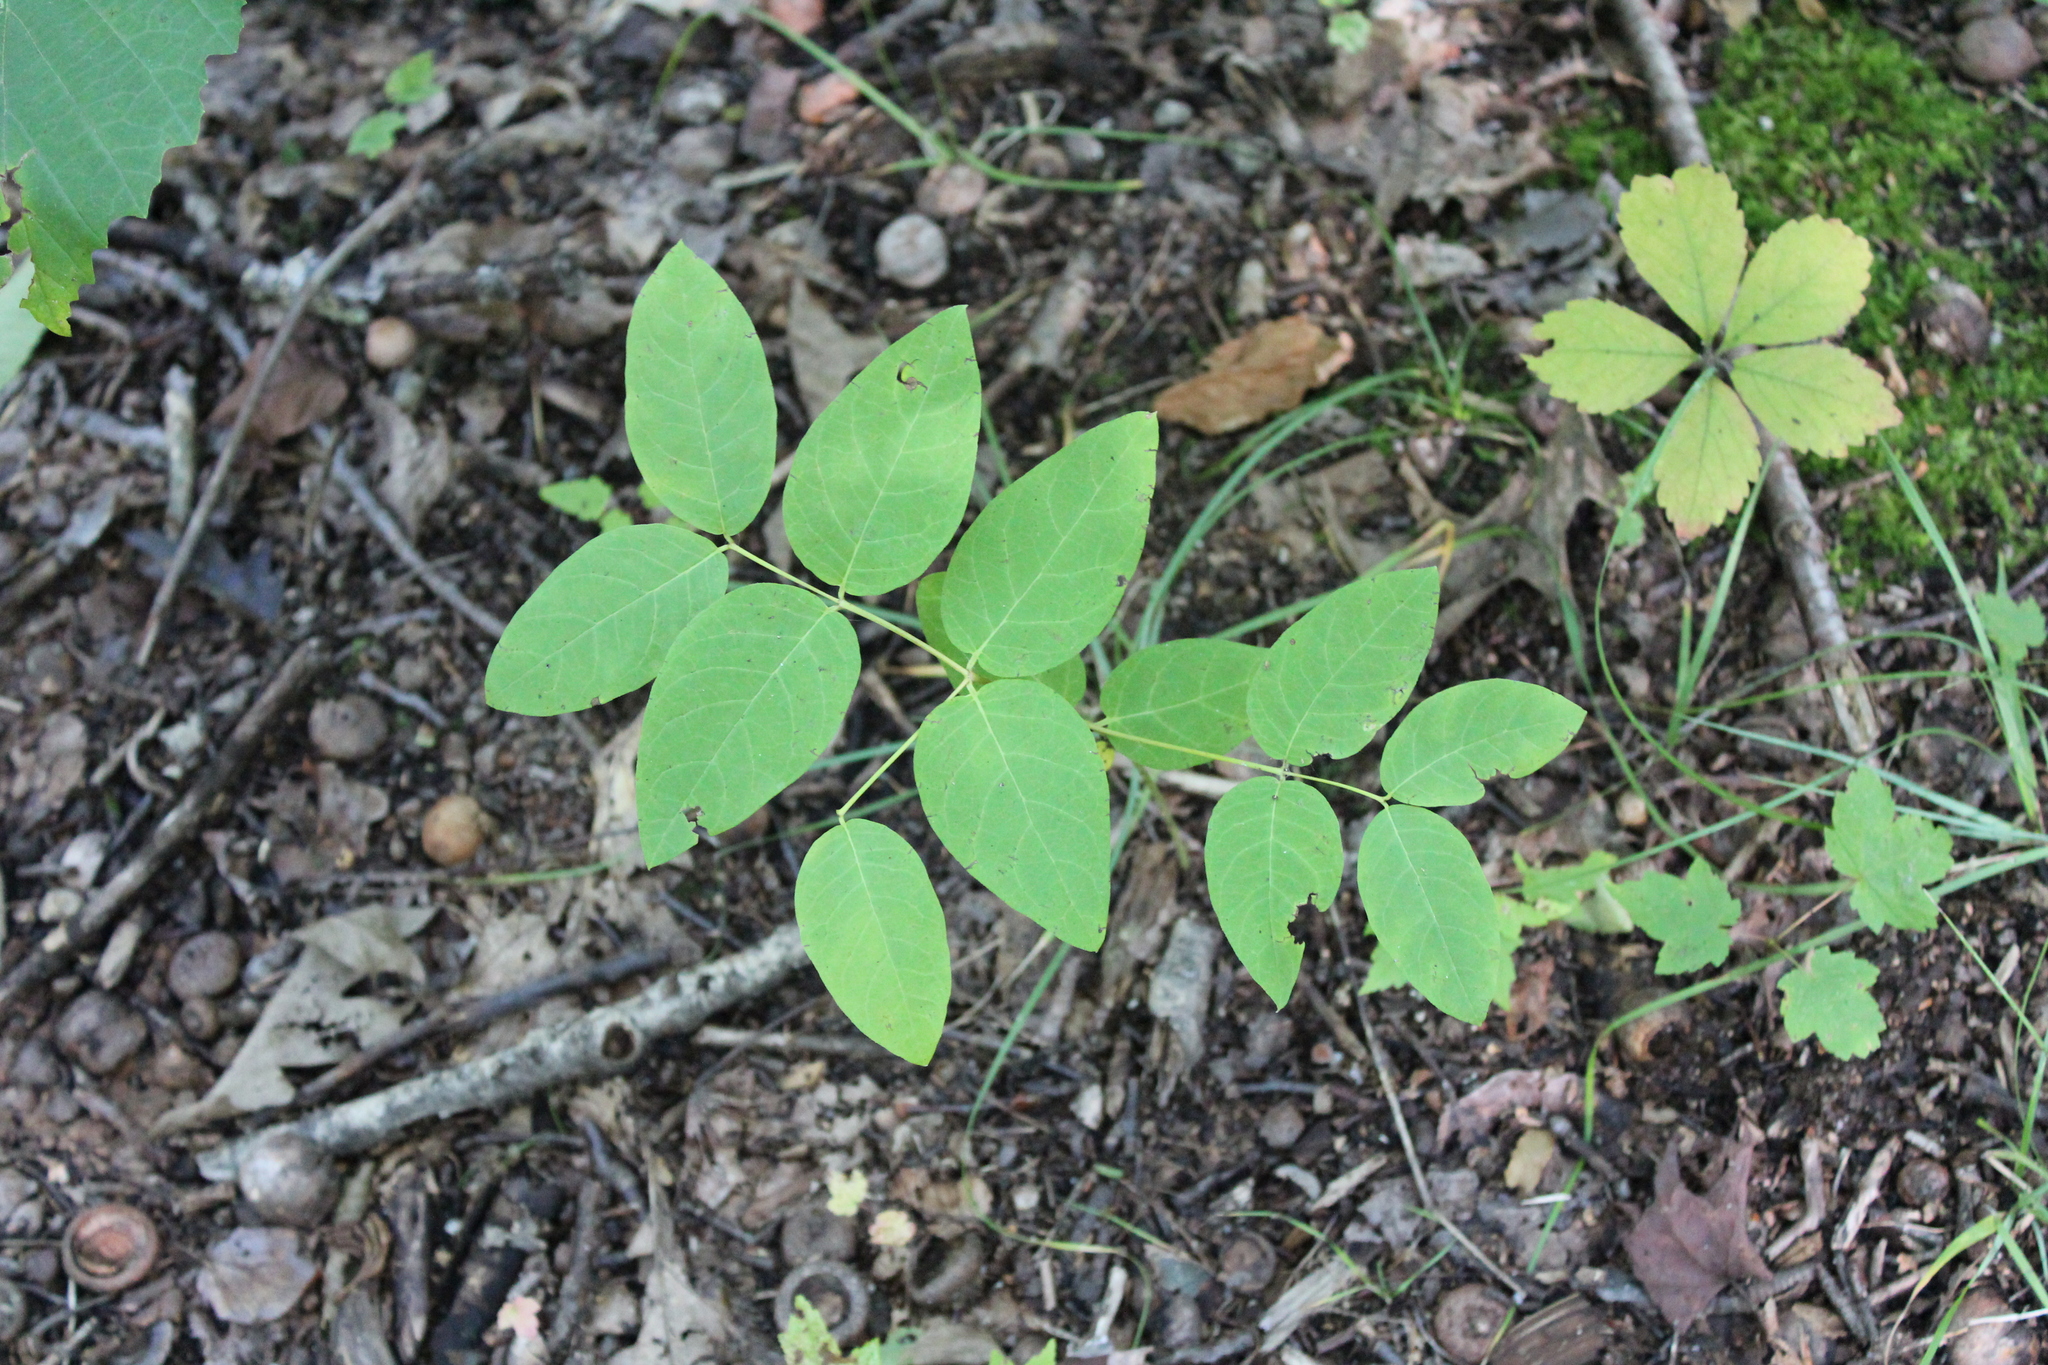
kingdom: Plantae
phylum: Tracheophyta
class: Magnoliopsida
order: Gentianales
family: Apocynaceae
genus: Apocynum
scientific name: Apocynum androsaemifolium
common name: Spreading dogbane
